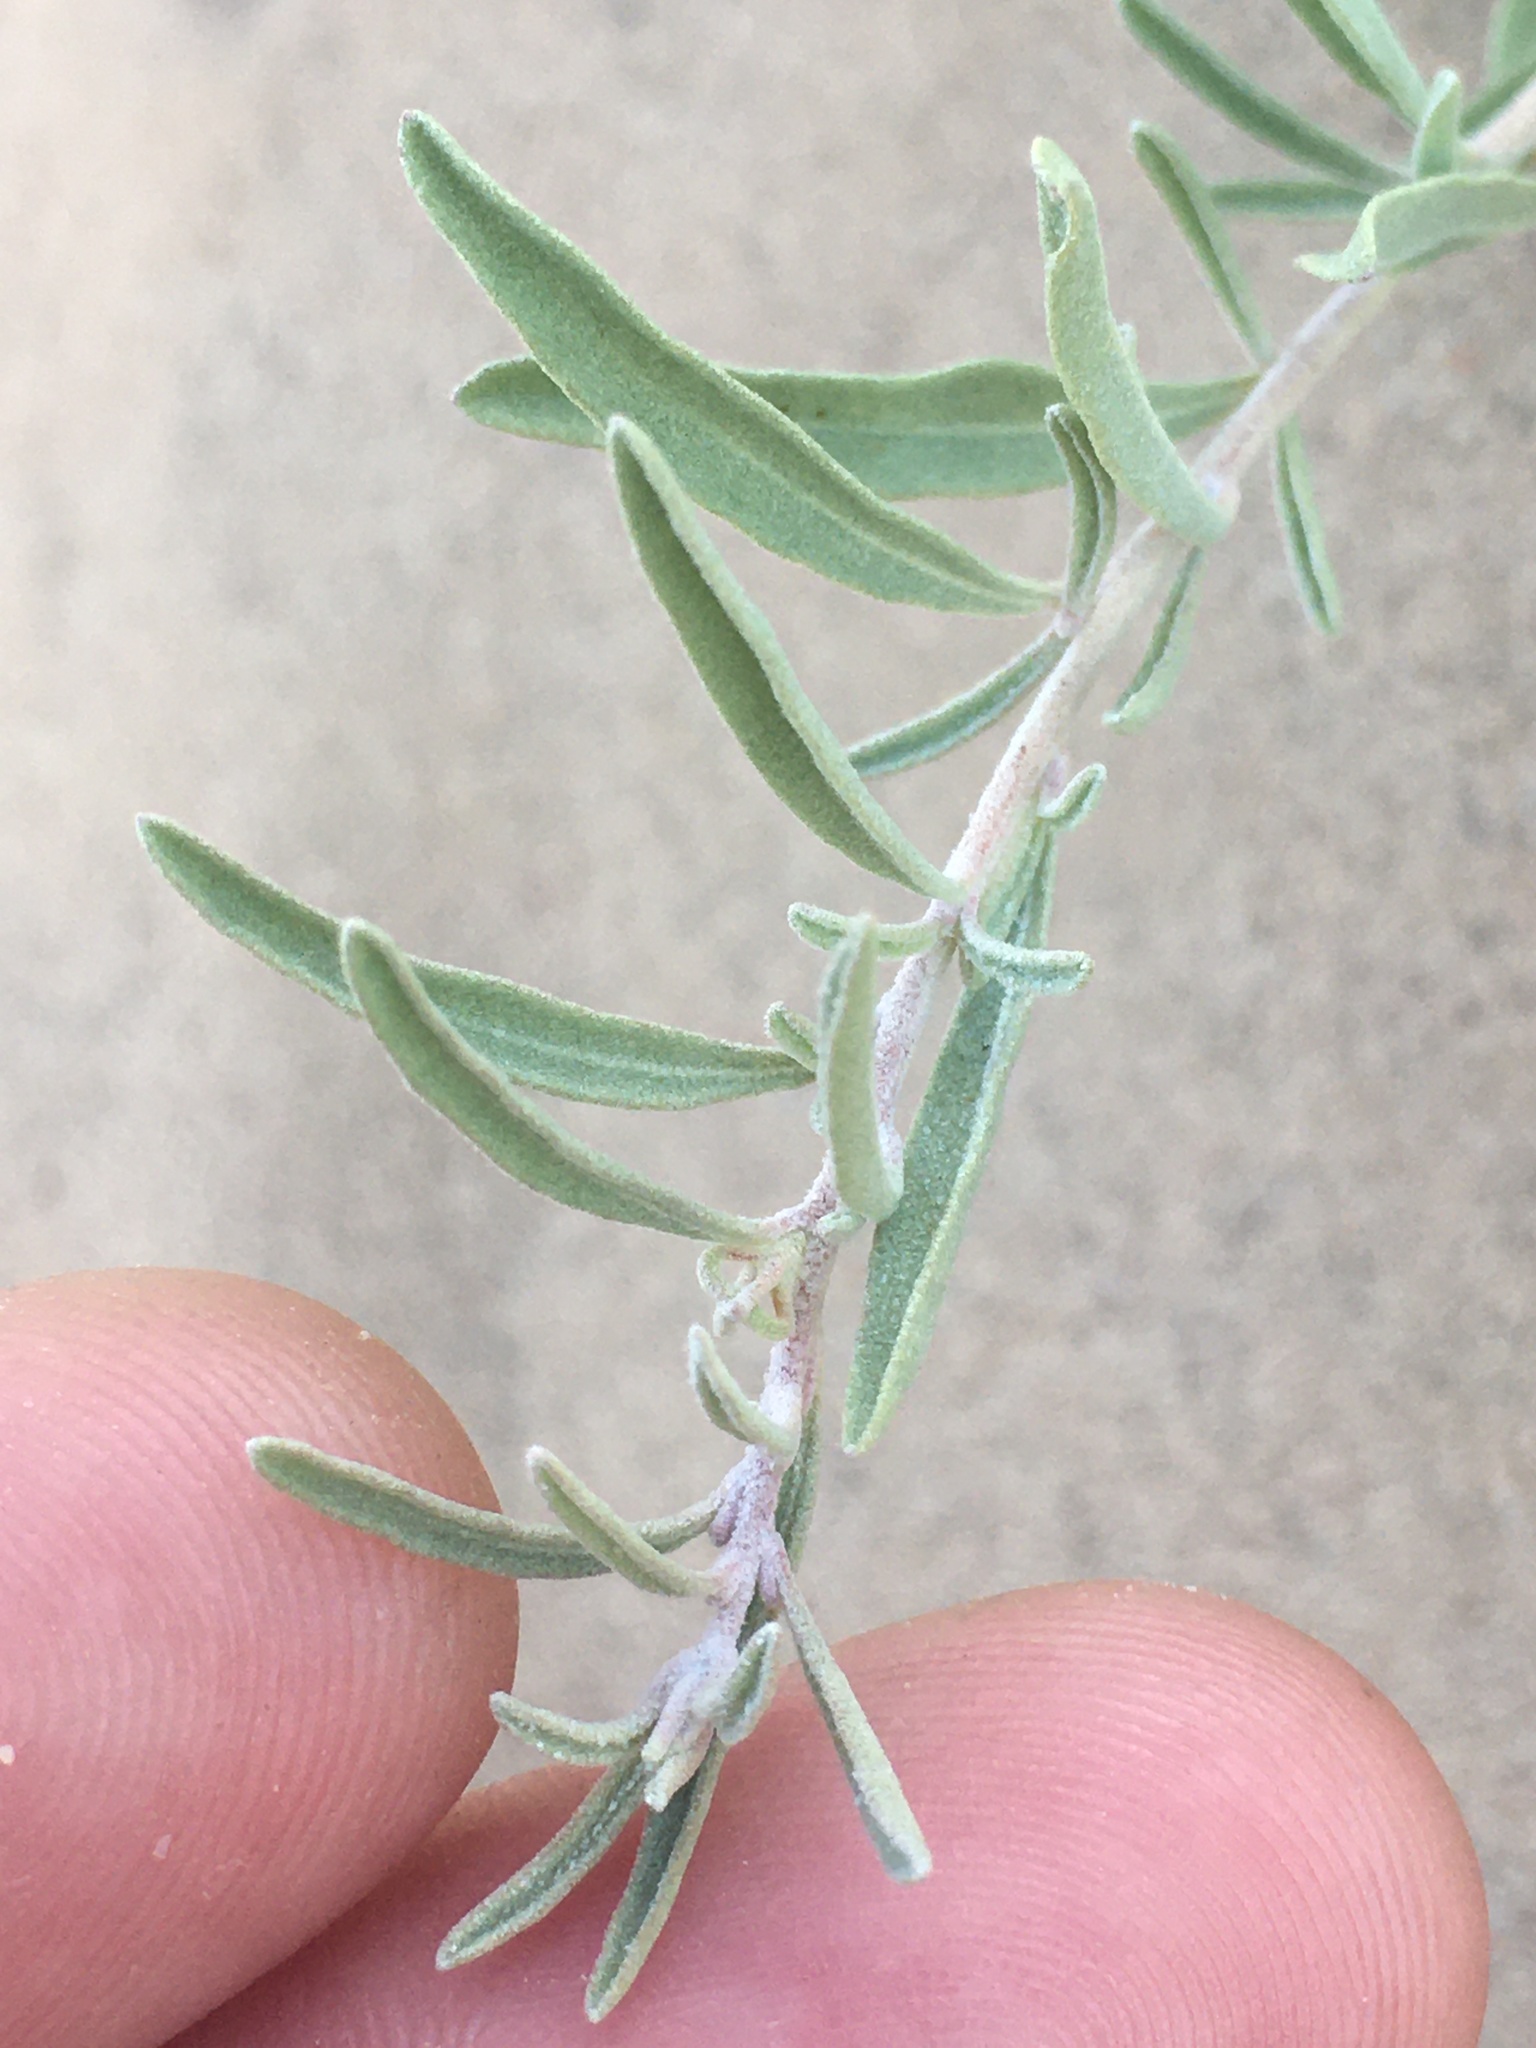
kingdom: Plantae
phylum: Tracheophyta
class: Magnoliopsida
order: Caryophyllales
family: Amaranthaceae
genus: Atriplex
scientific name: Atriplex canescens
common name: Four-wing saltbush
